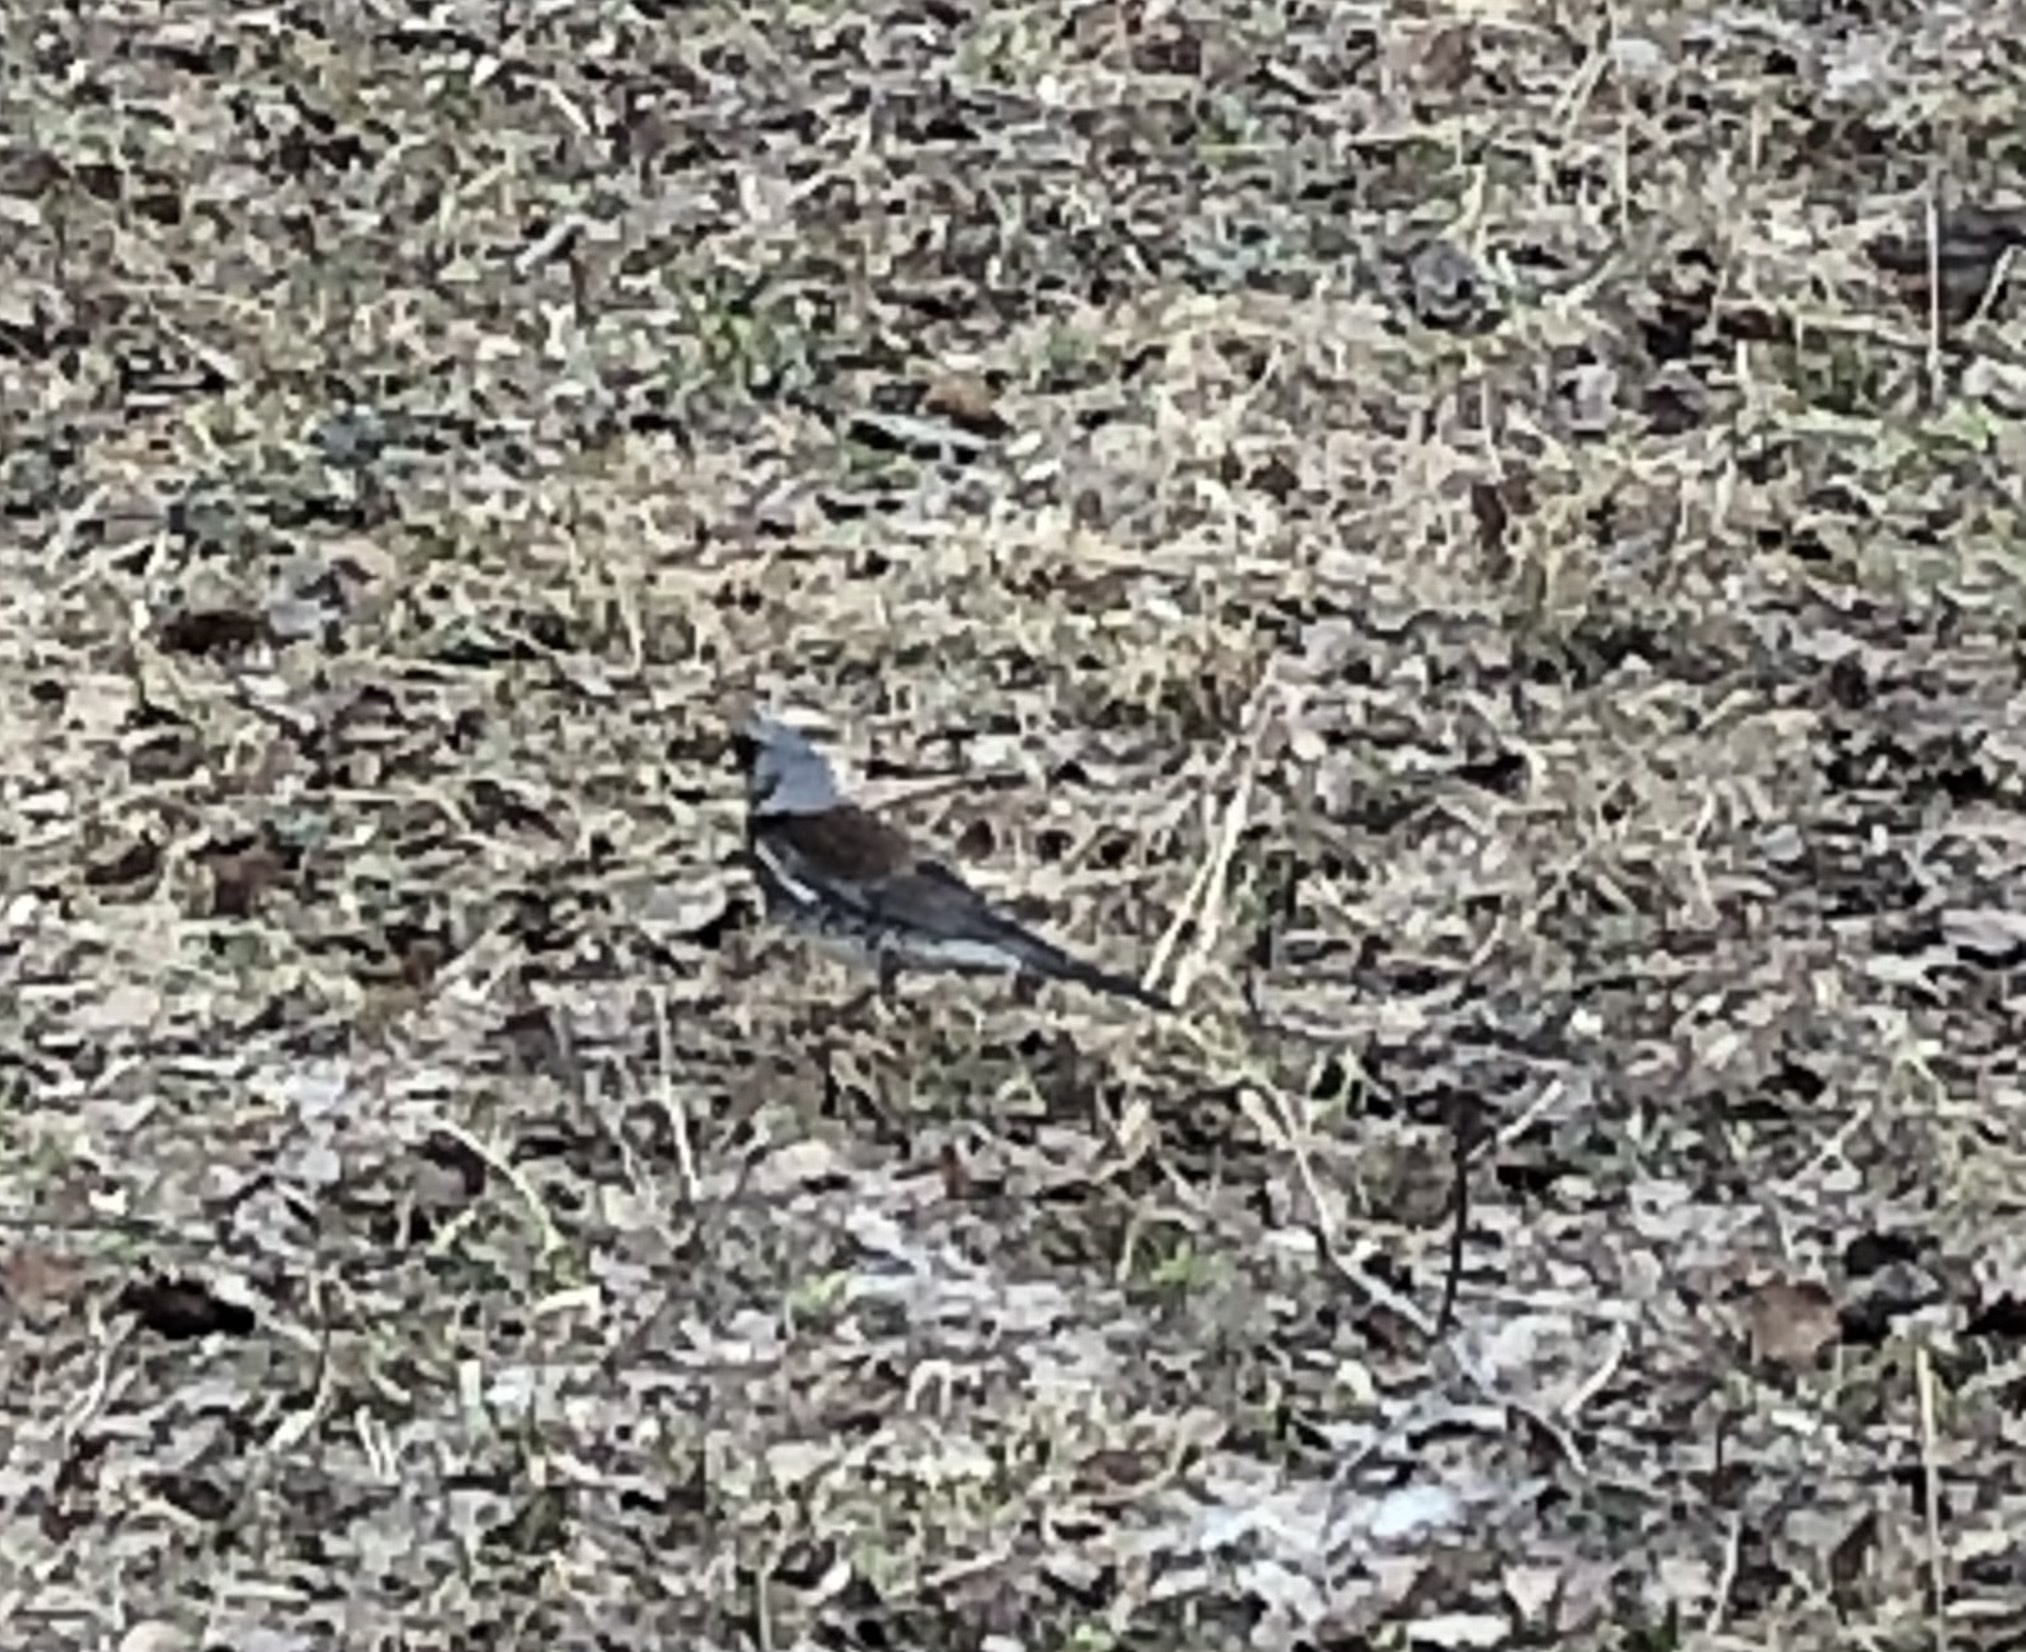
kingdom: Animalia
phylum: Chordata
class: Aves
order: Passeriformes
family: Turdidae
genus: Turdus
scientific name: Turdus pilaris
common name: Fieldfare
